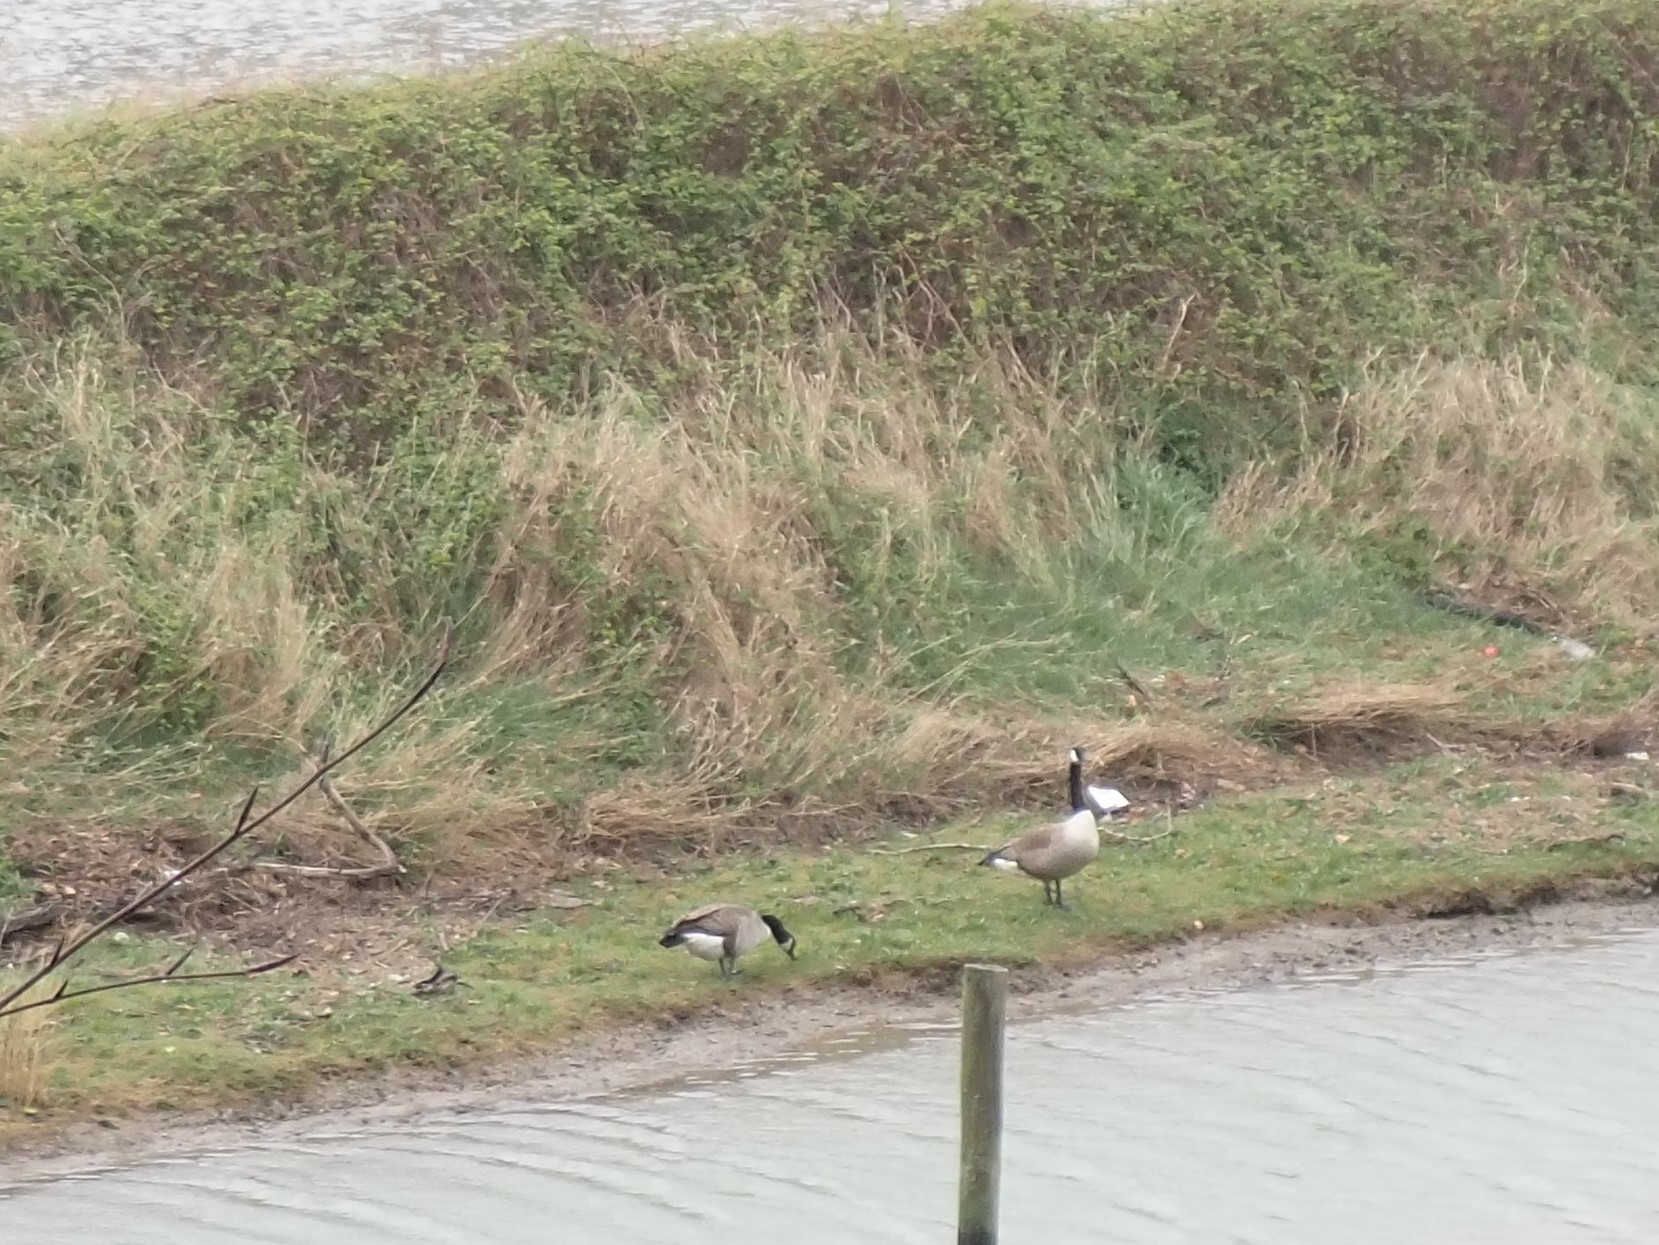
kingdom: Animalia
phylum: Chordata
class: Aves
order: Anseriformes
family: Anatidae
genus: Branta
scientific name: Branta canadensis
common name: Canada goose
